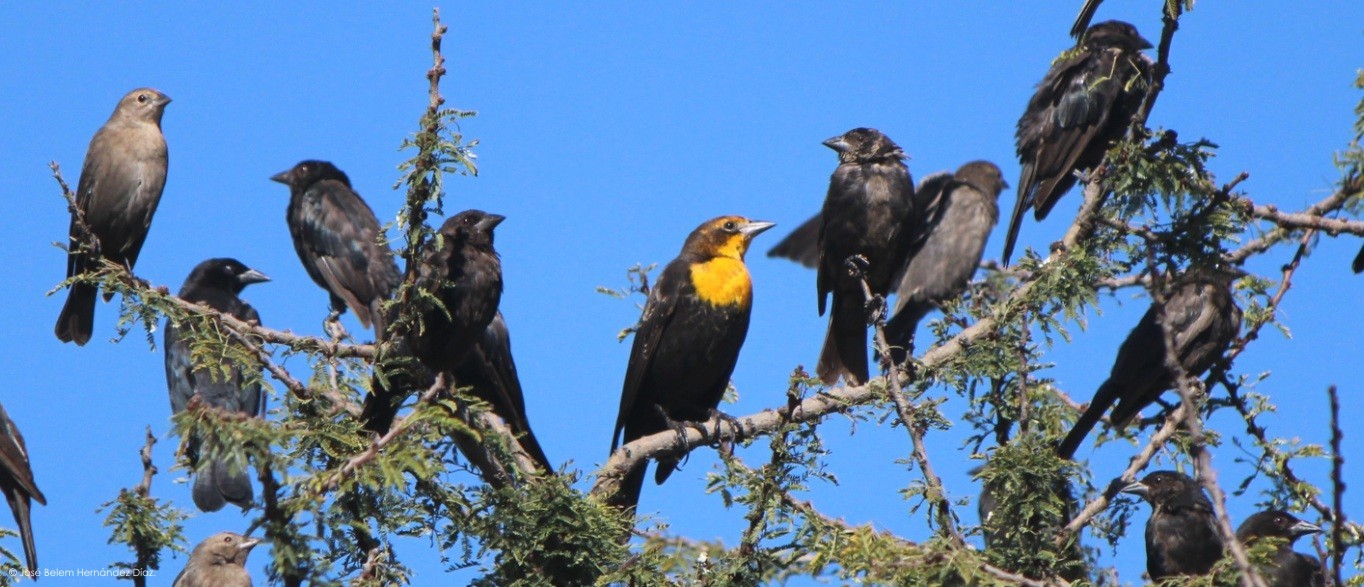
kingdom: Animalia
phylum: Chordata
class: Aves
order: Passeriformes
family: Icteridae
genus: Xanthocephalus
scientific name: Xanthocephalus xanthocephalus
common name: Yellow-headed blackbird
